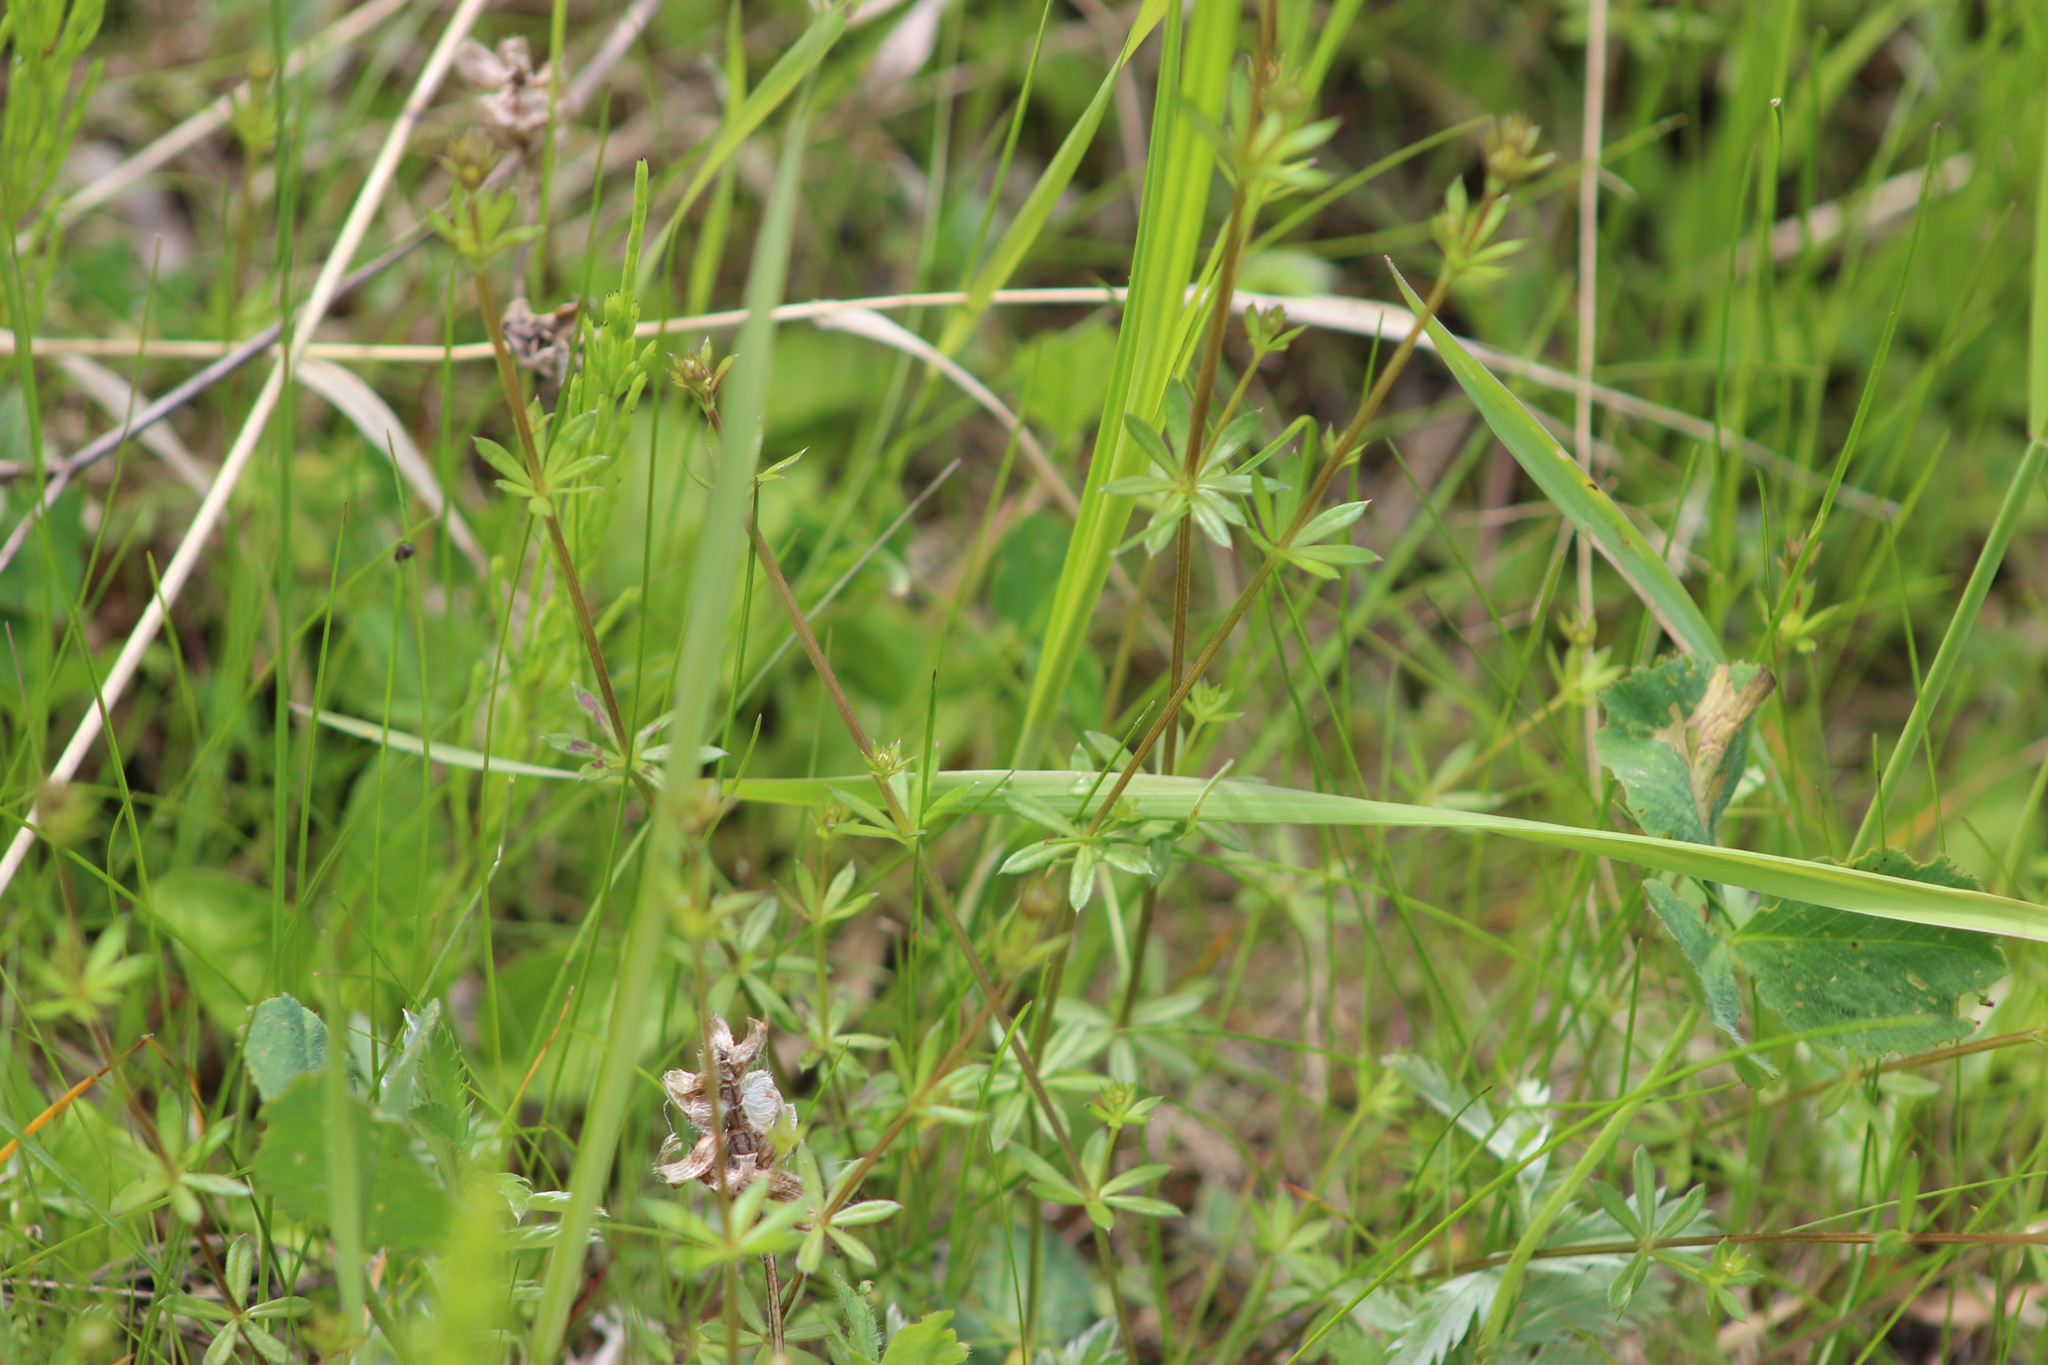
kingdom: Plantae
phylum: Tracheophyta
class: Magnoliopsida
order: Gentianales
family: Rubiaceae
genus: Galium
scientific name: Galium uliginosum
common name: Fen bedstraw
